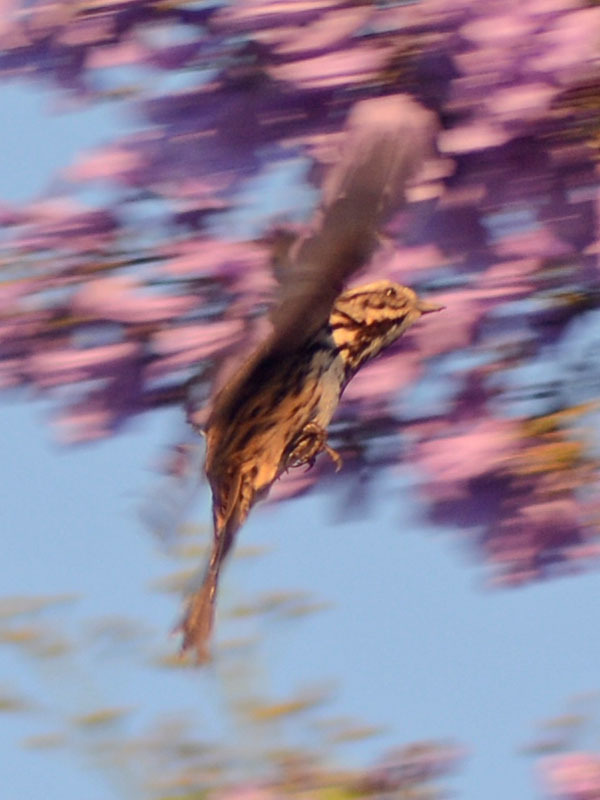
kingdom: Animalia
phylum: Chordata
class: Aves
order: Passeriformes
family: Passerellidae
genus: Melospiza
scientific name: Melospiza melodia
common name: Song sparrow
